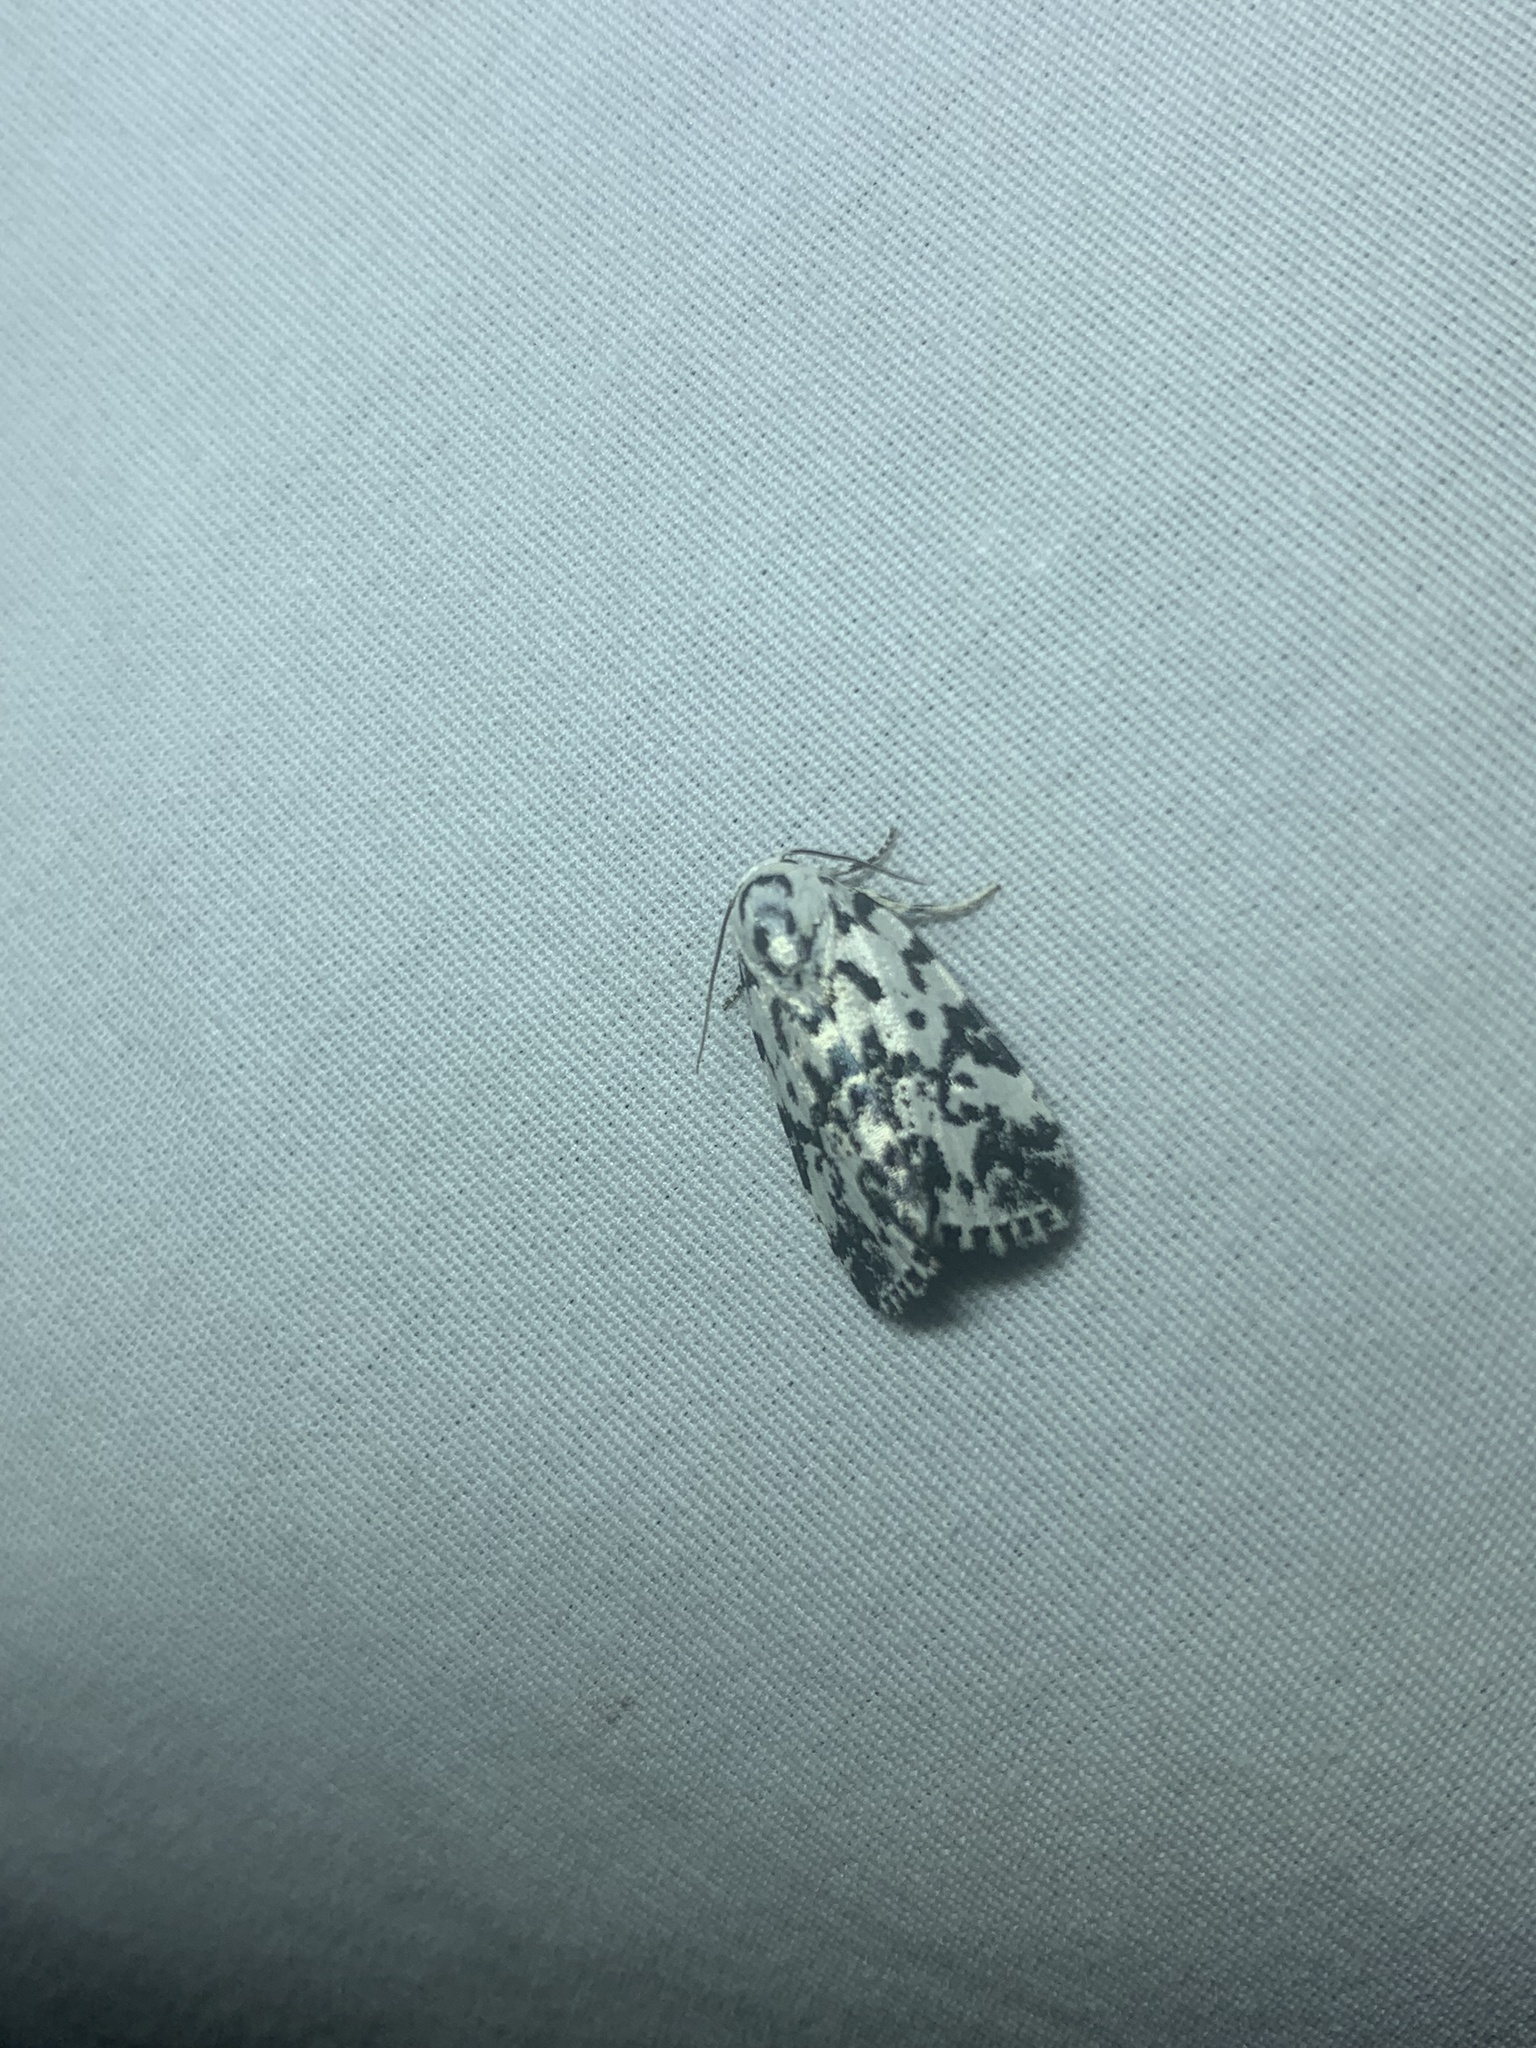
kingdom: Animalia
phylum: Arthropoda
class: Insecta
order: Lepidoptera
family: Noctuidae
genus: Polygrammate
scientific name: Polygrammate hebraeicum
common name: Hebrew moth
